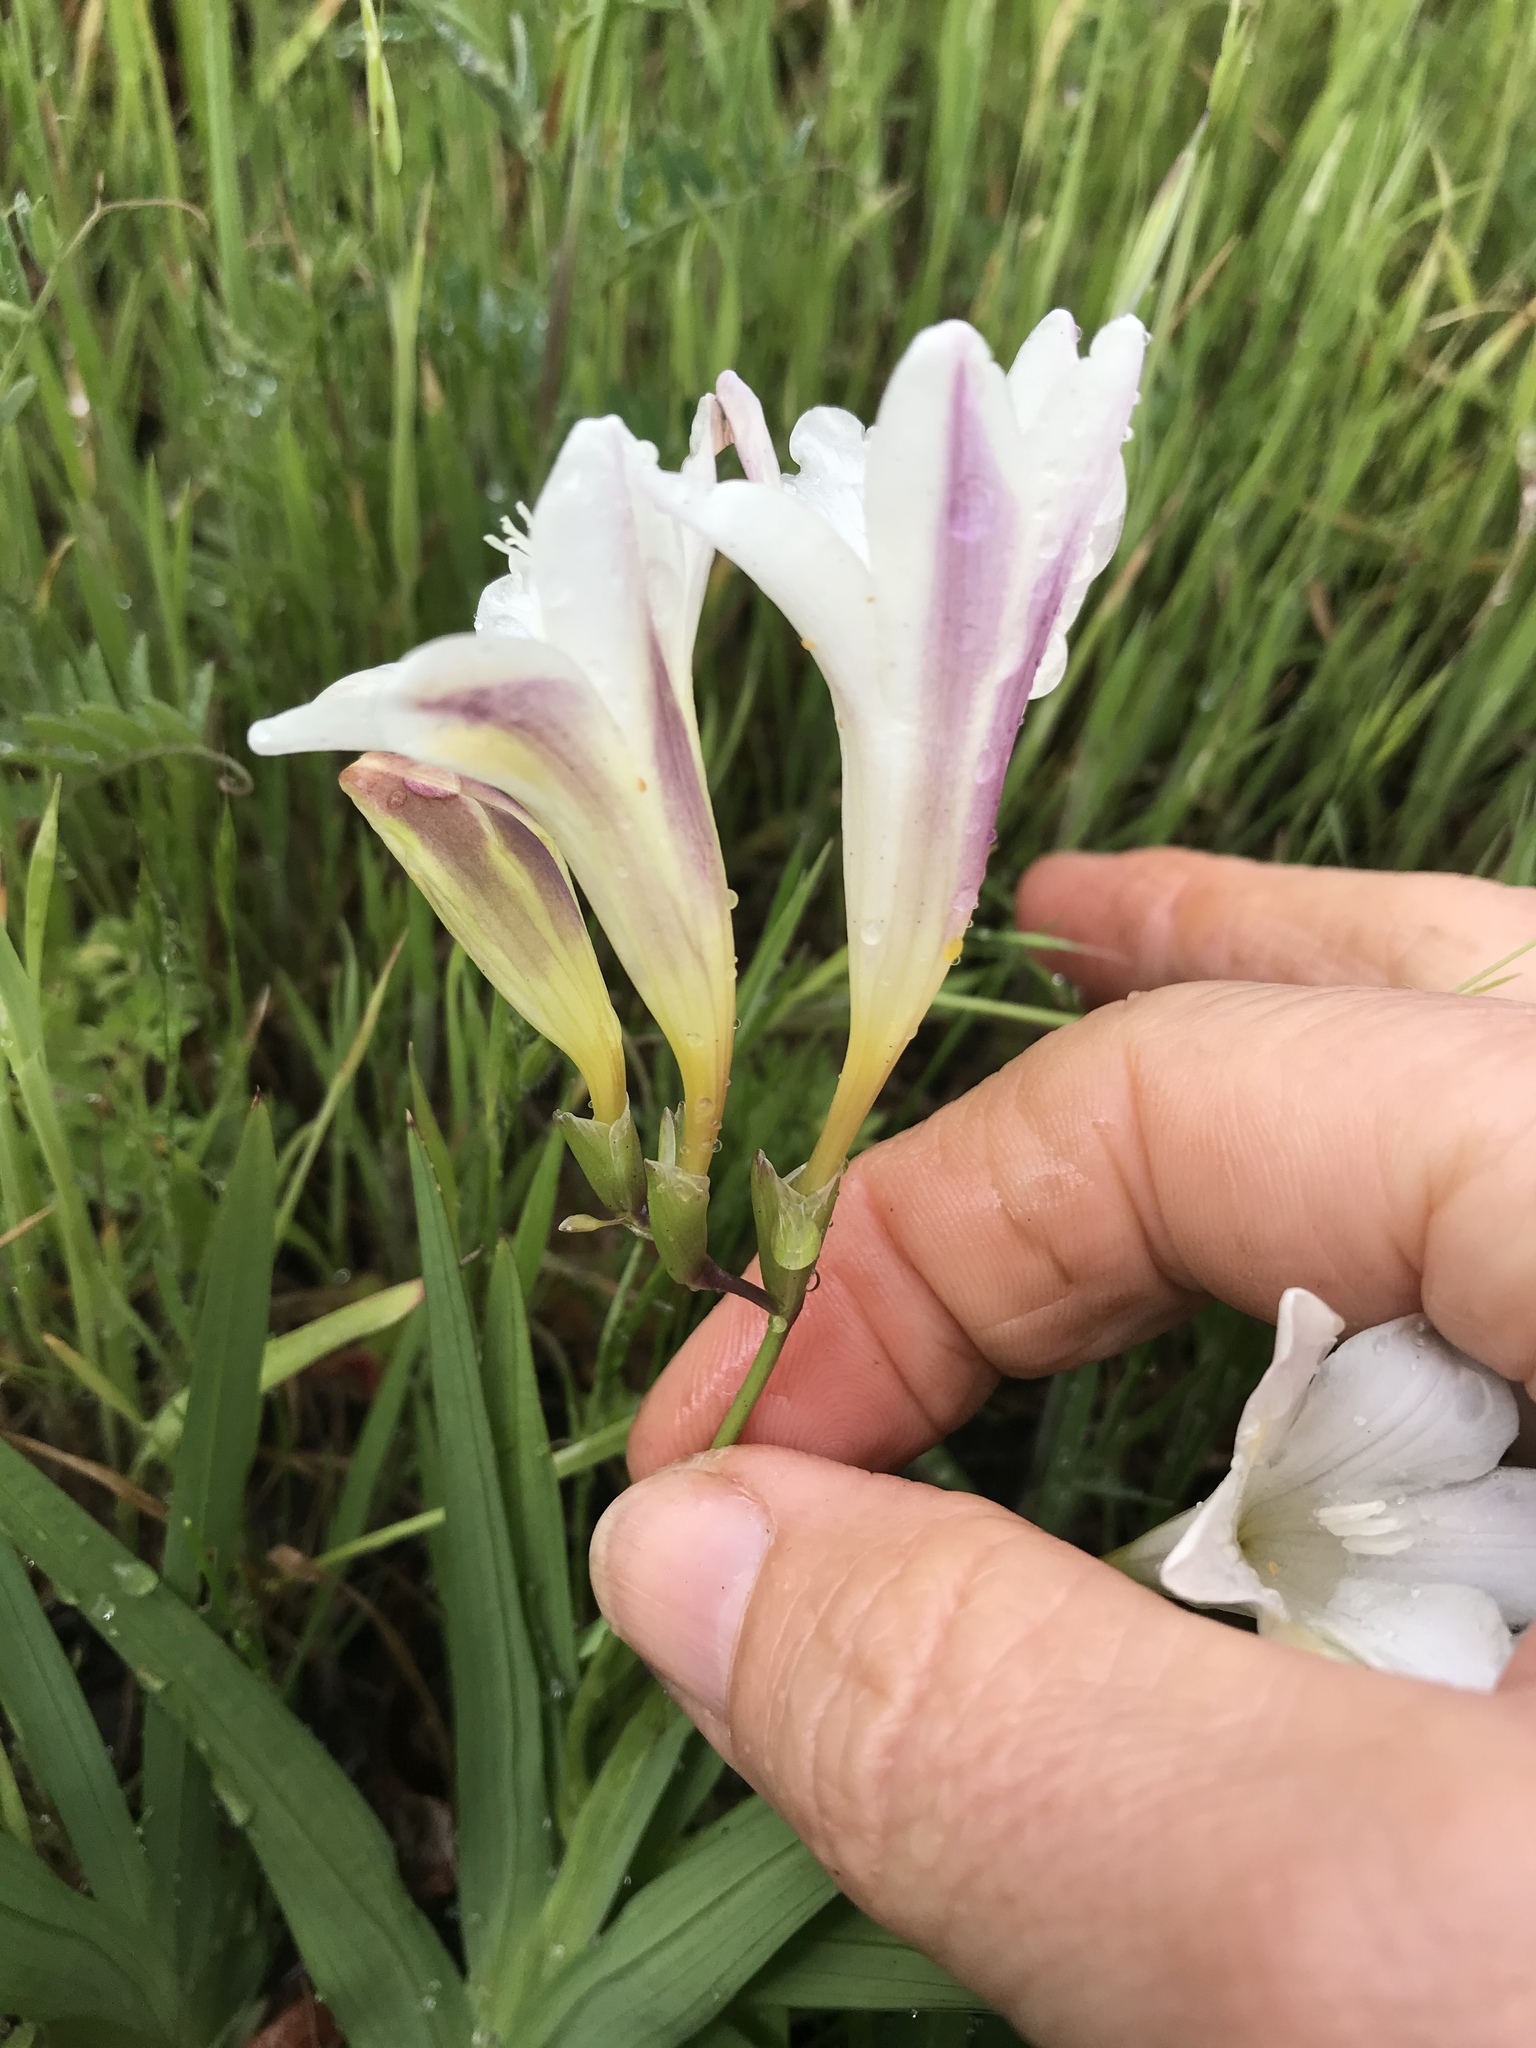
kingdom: Plantae
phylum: Tracheophyta
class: Liliopsida
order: Asparagales
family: Iridaceae
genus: Freesia
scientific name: Freesia leichtlinii
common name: Freesia
